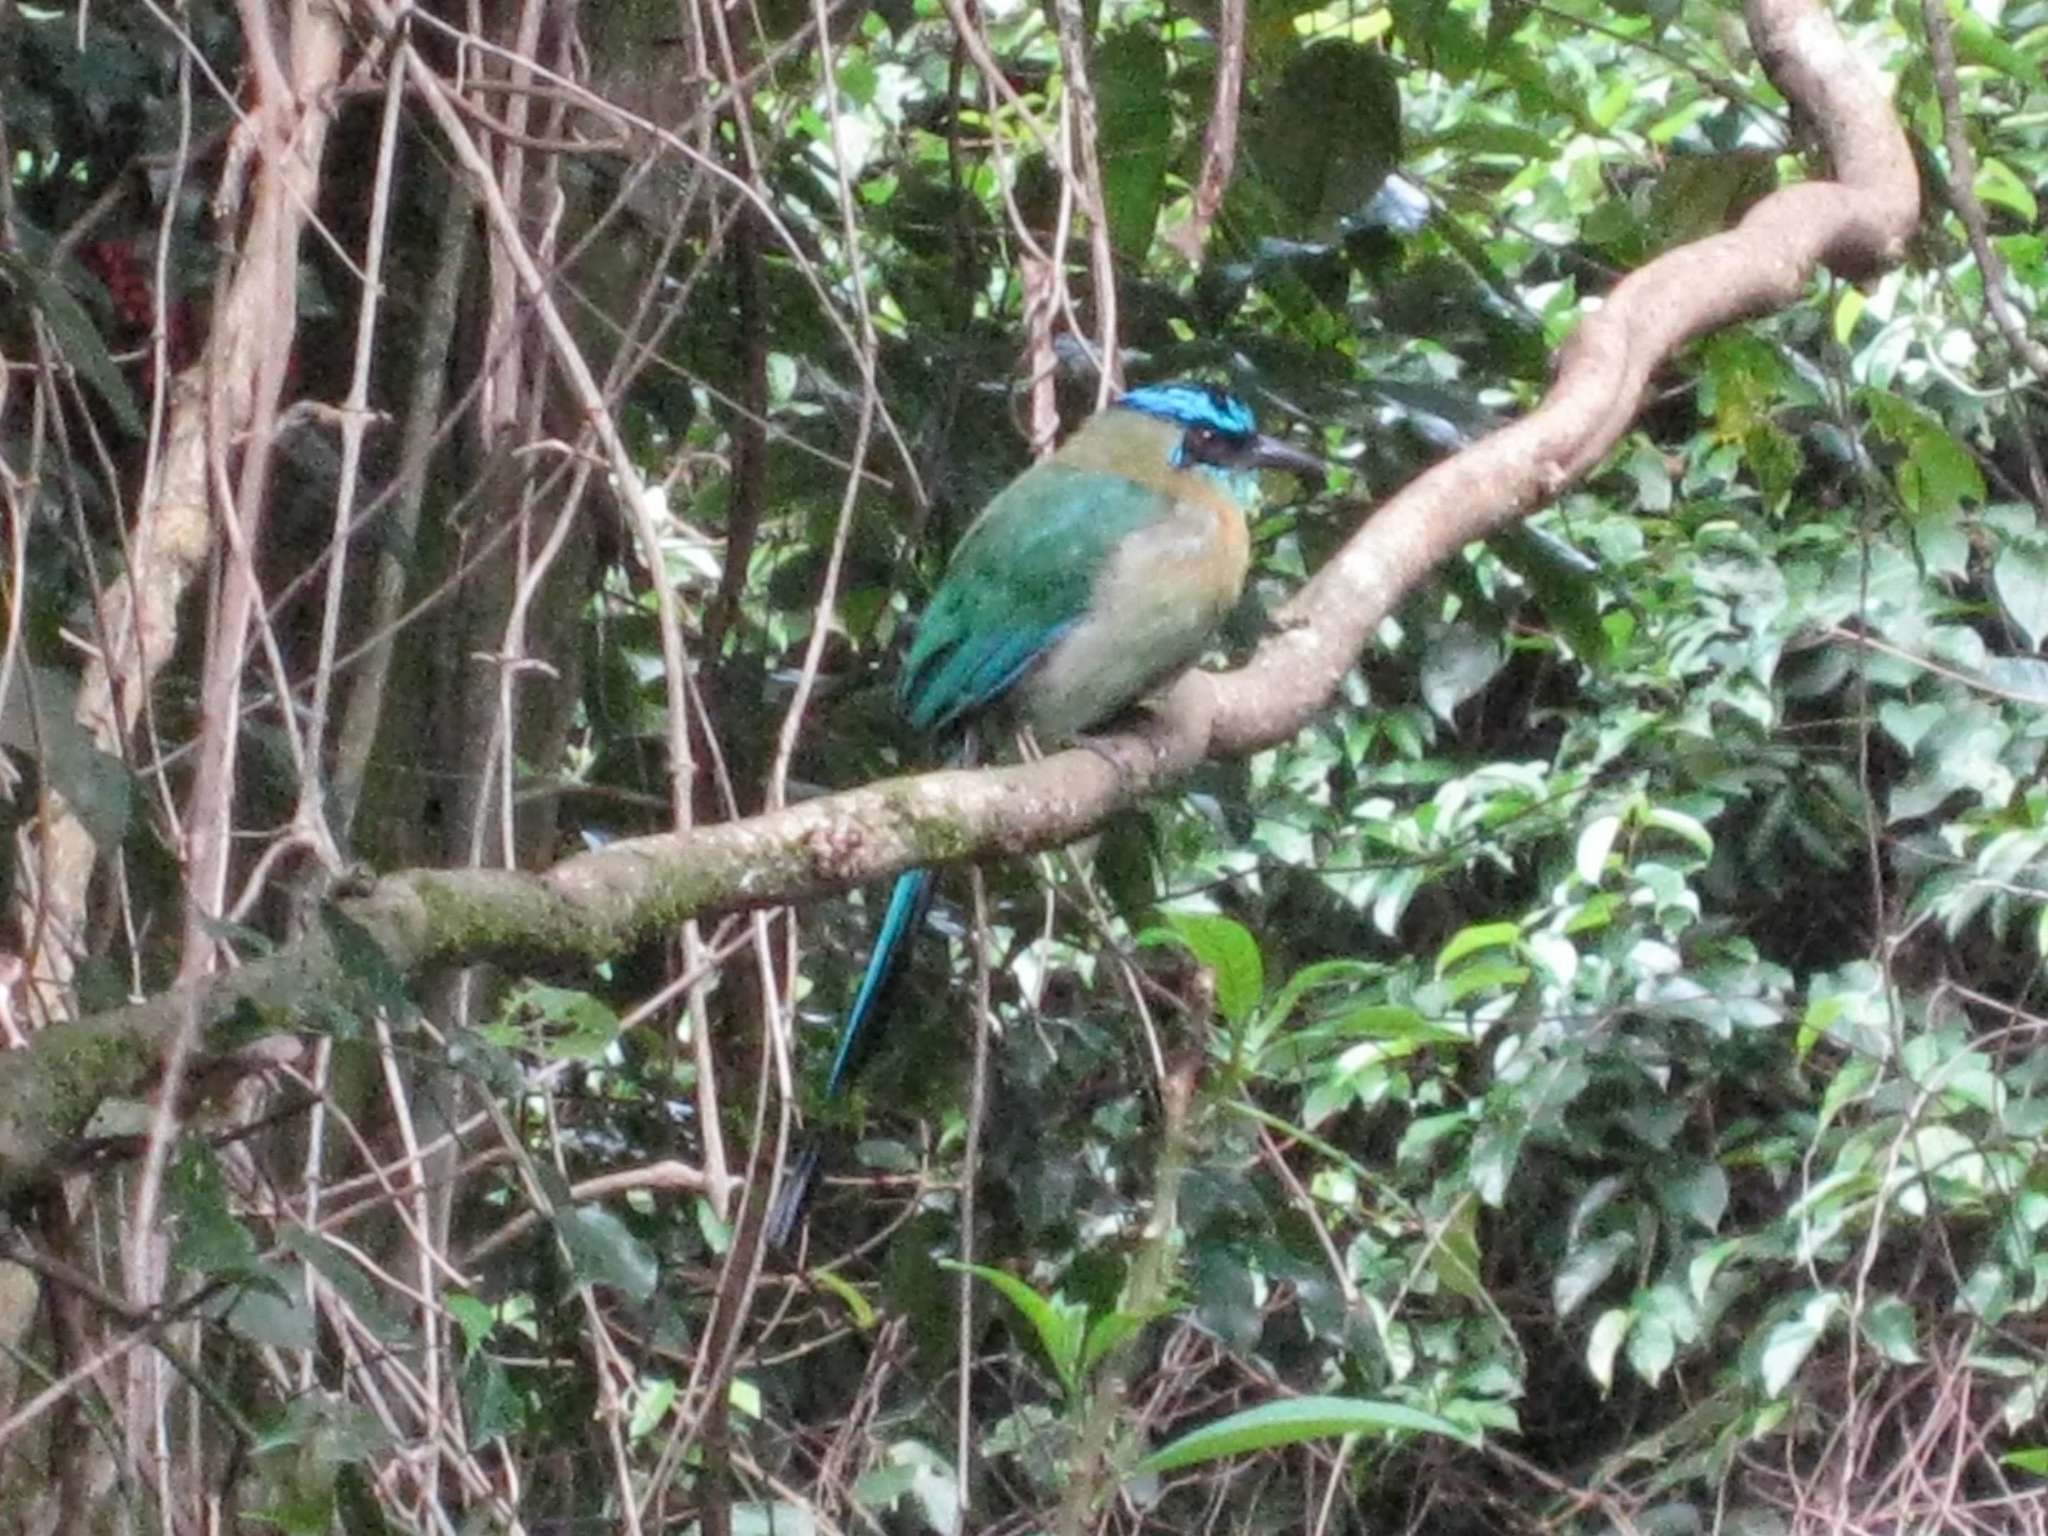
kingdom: Animalia
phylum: Chordata
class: Aves
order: Coraciiformes
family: Momotidae
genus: Momotus
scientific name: Momotus lessonii
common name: Lesson's motmot
